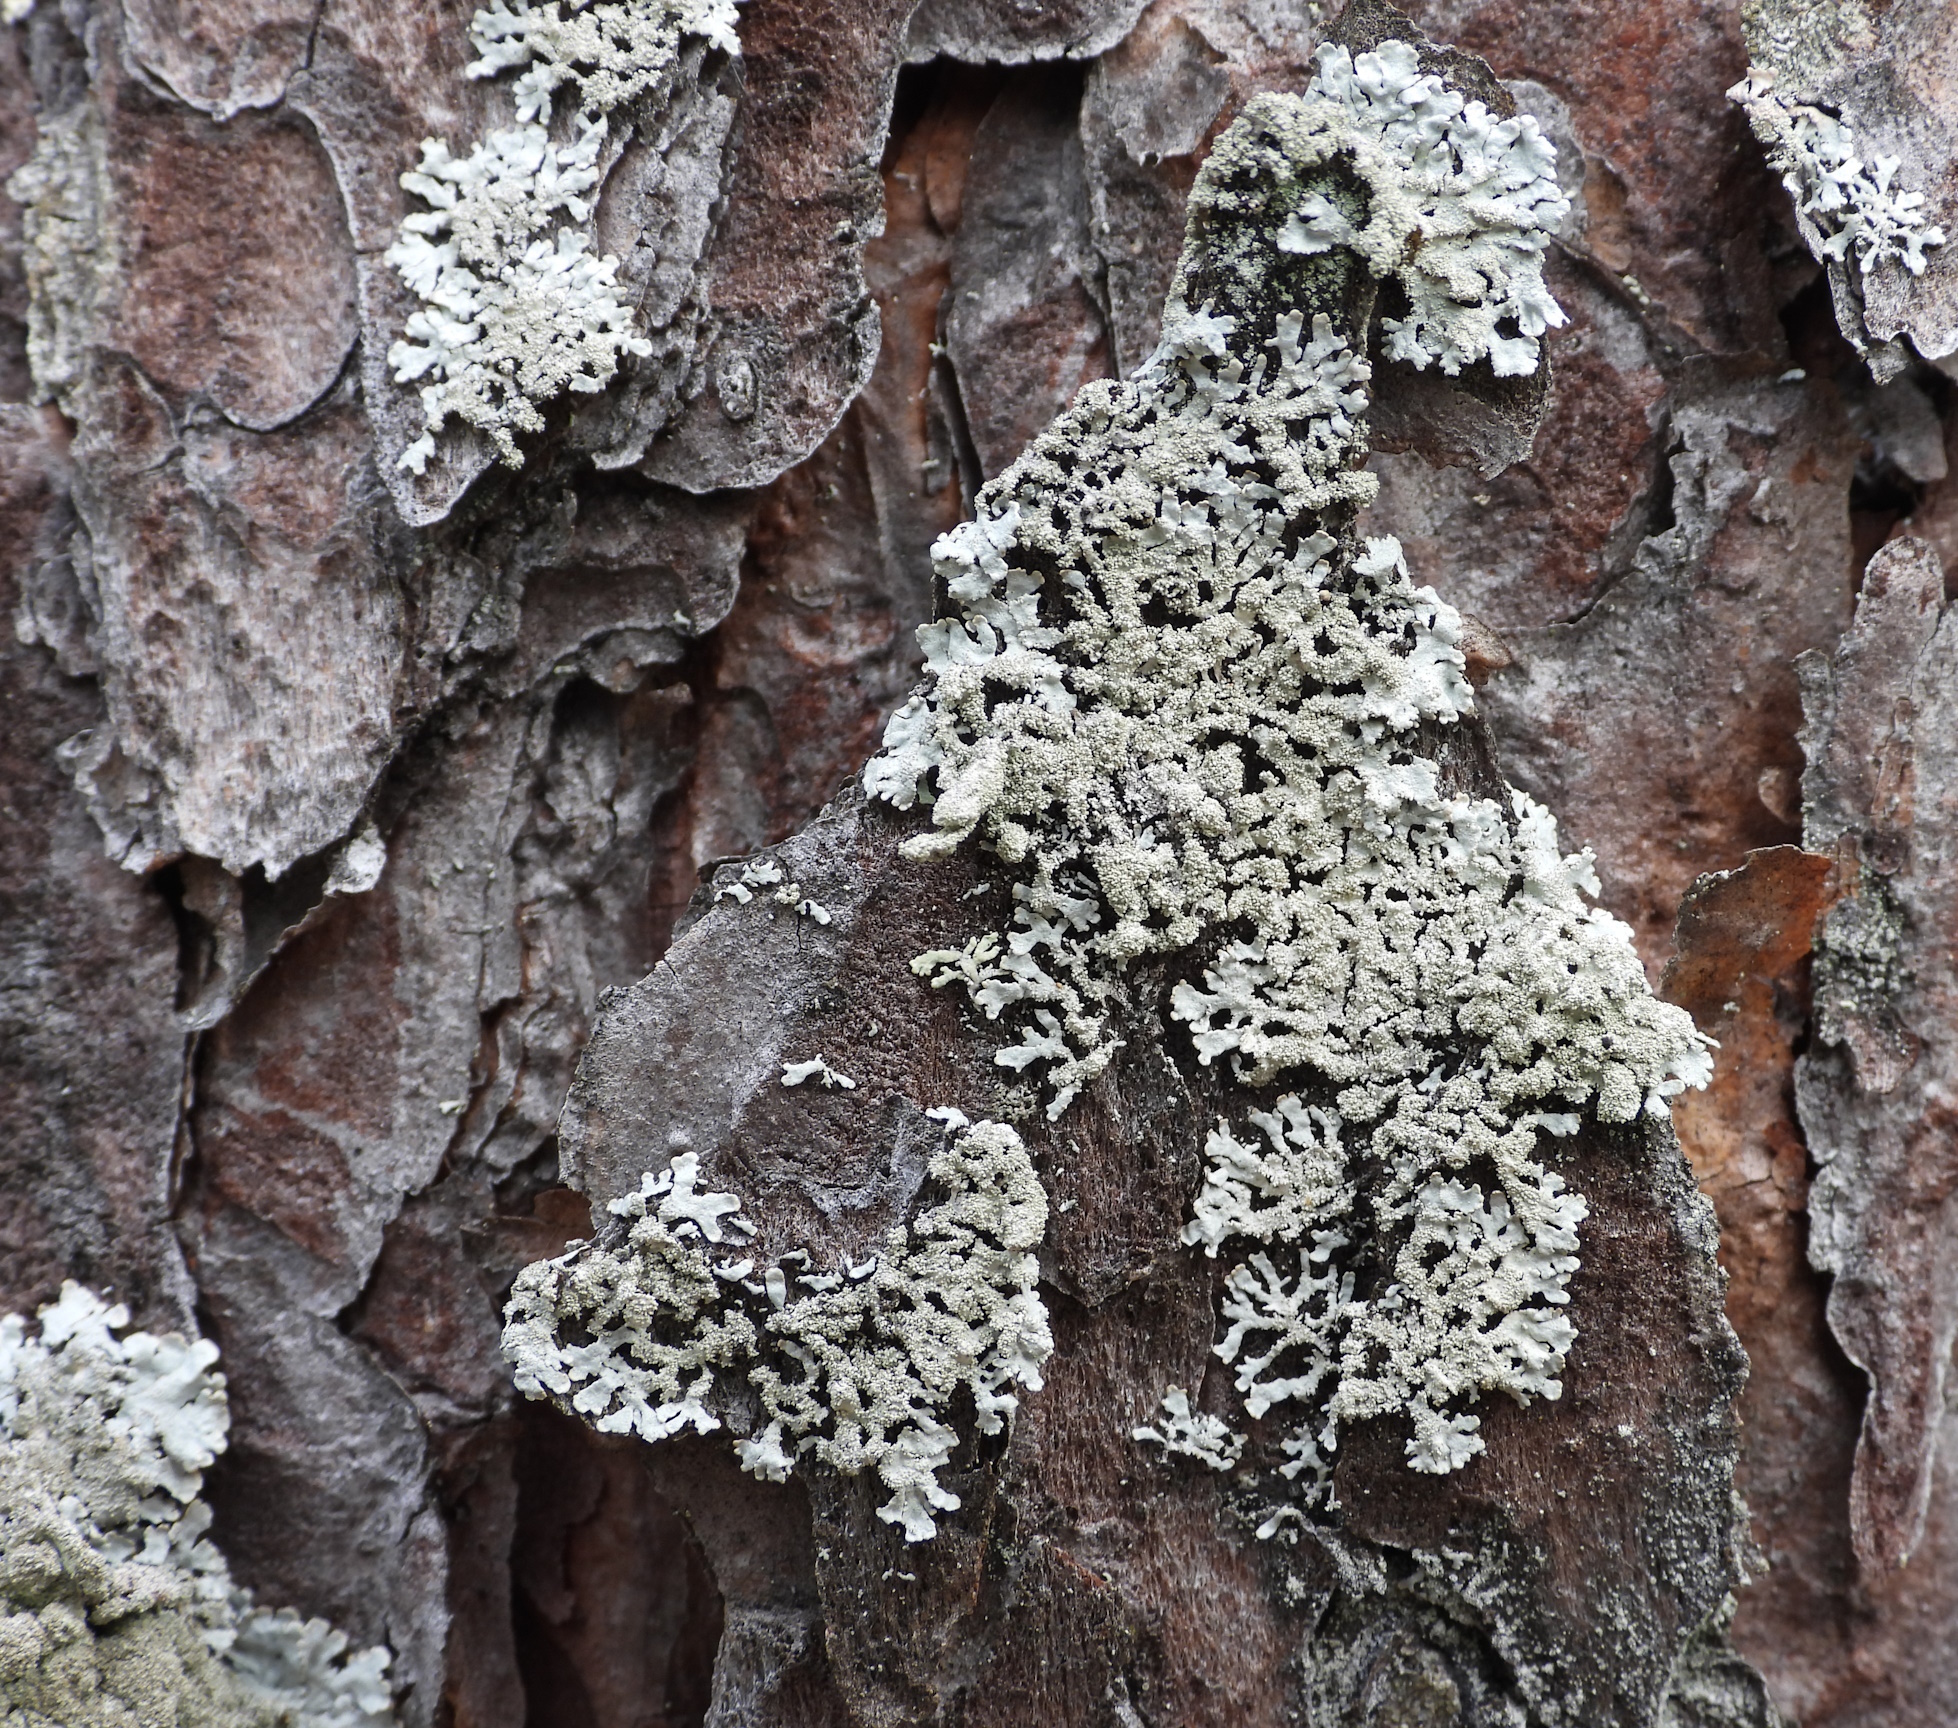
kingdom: Fungi
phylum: Ascomycota
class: Lecanoromycetes
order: Lecanorales
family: Parmeliaceae
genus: Imshaugia
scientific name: Imshaugia aleurites
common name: Salted starburst lichen
